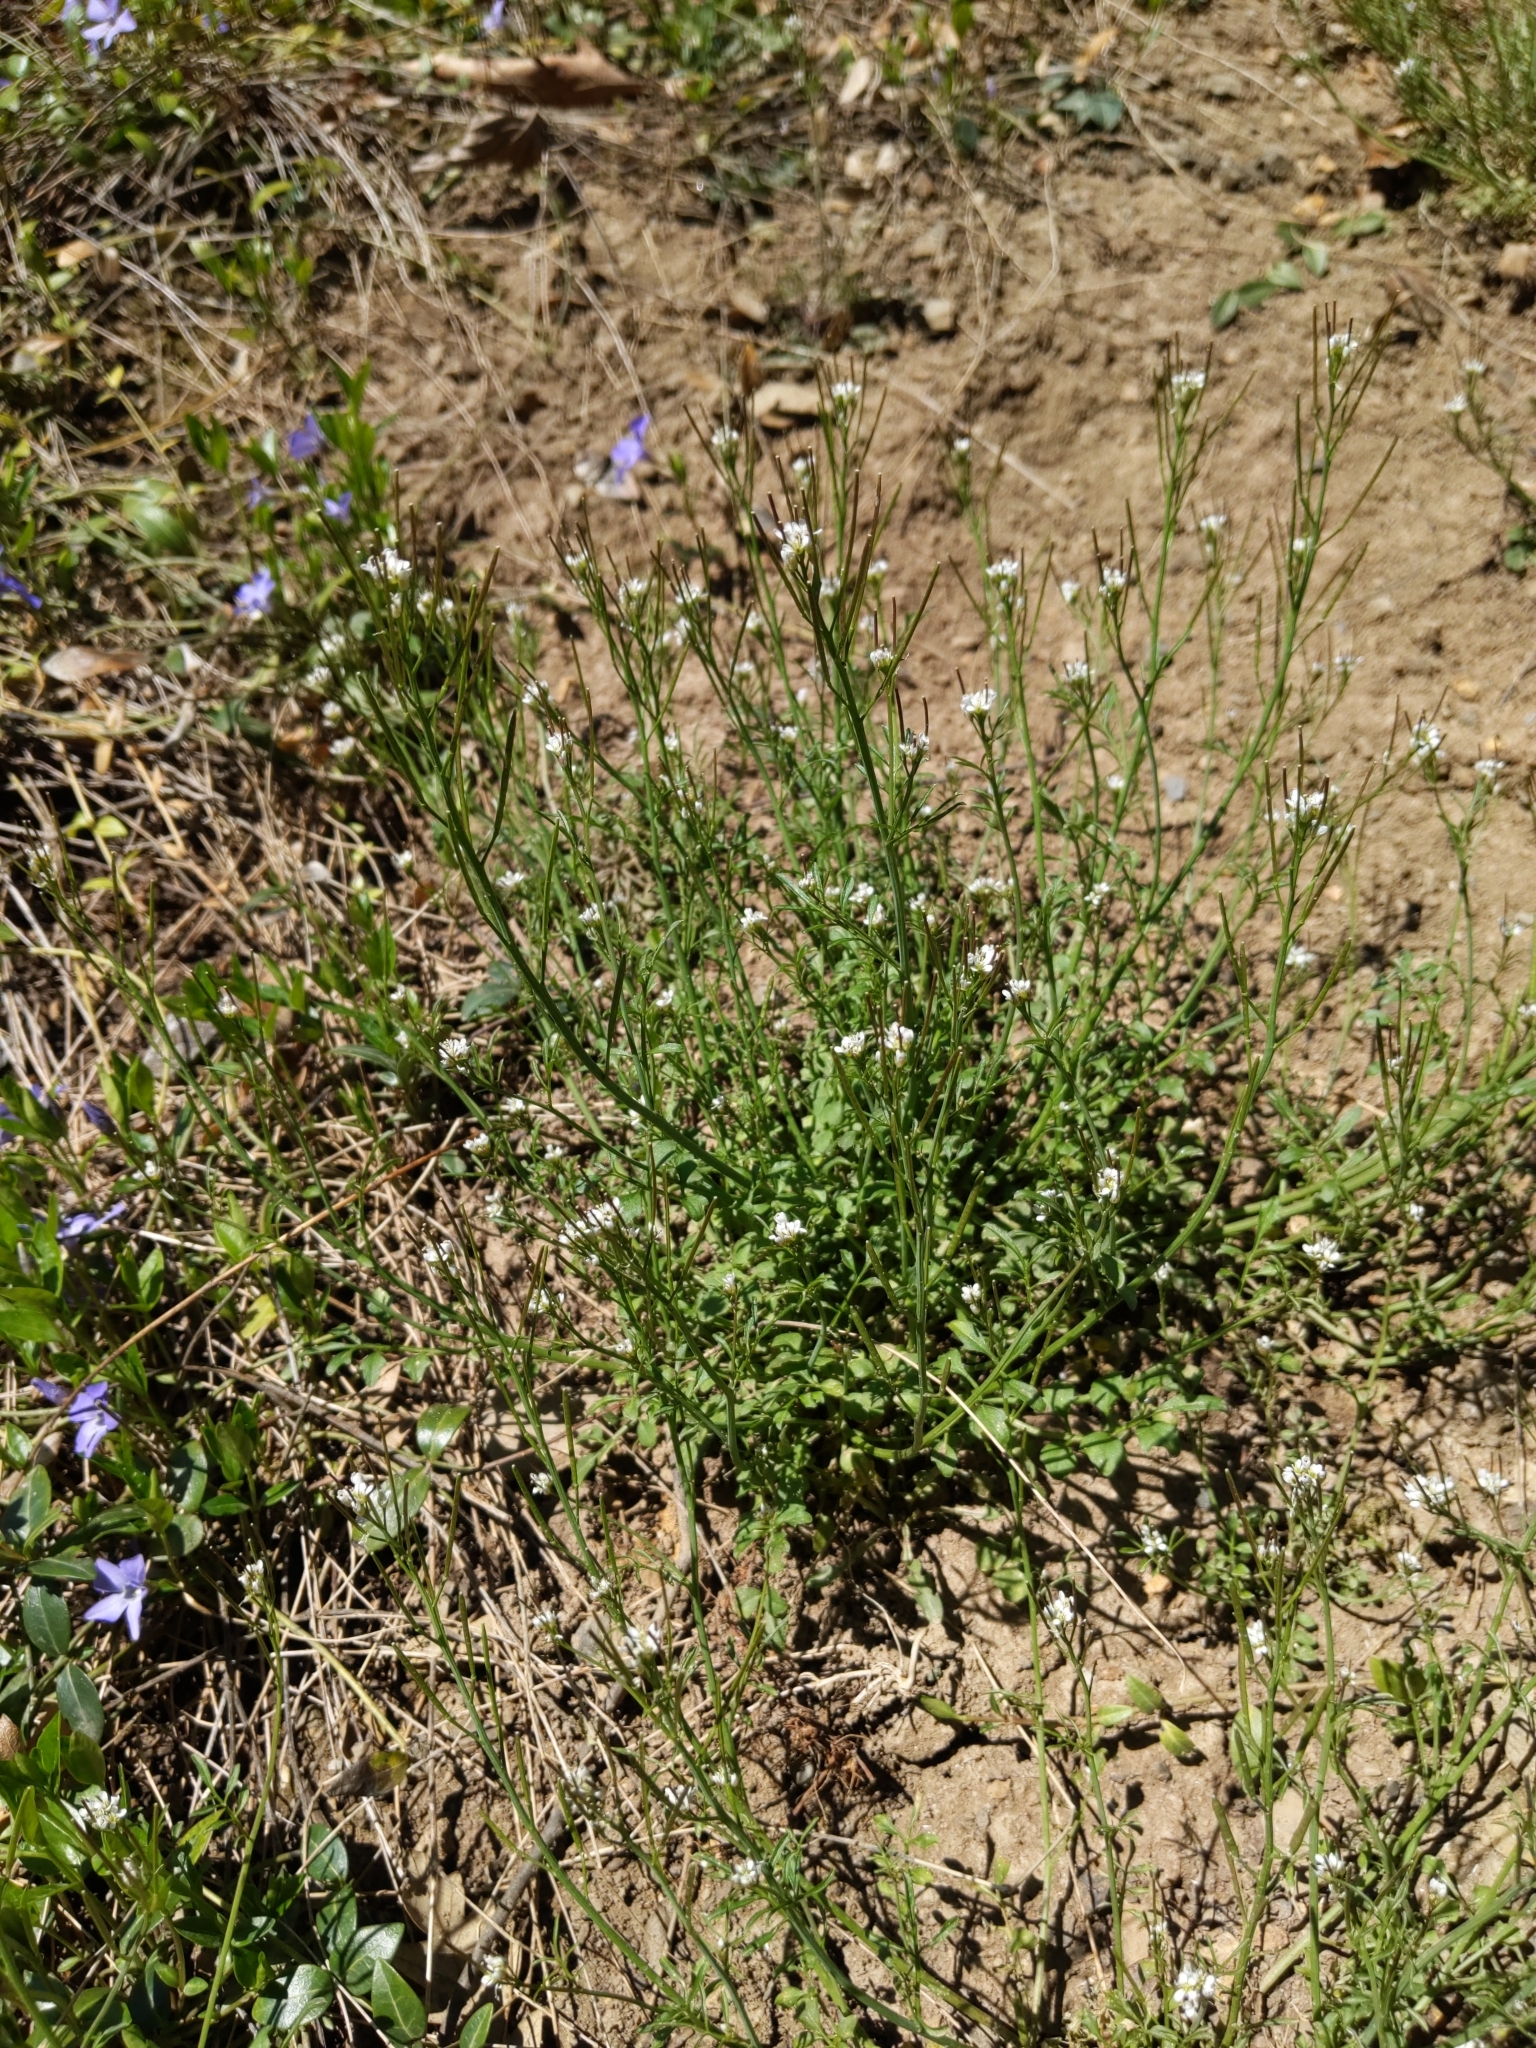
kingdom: Plantae
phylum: Tracheophyta
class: Magnoliopsida
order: Brassicales
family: Brassicaceae
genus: Cardamine
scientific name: Cardamine hirsuta
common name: Hairy bittercress
